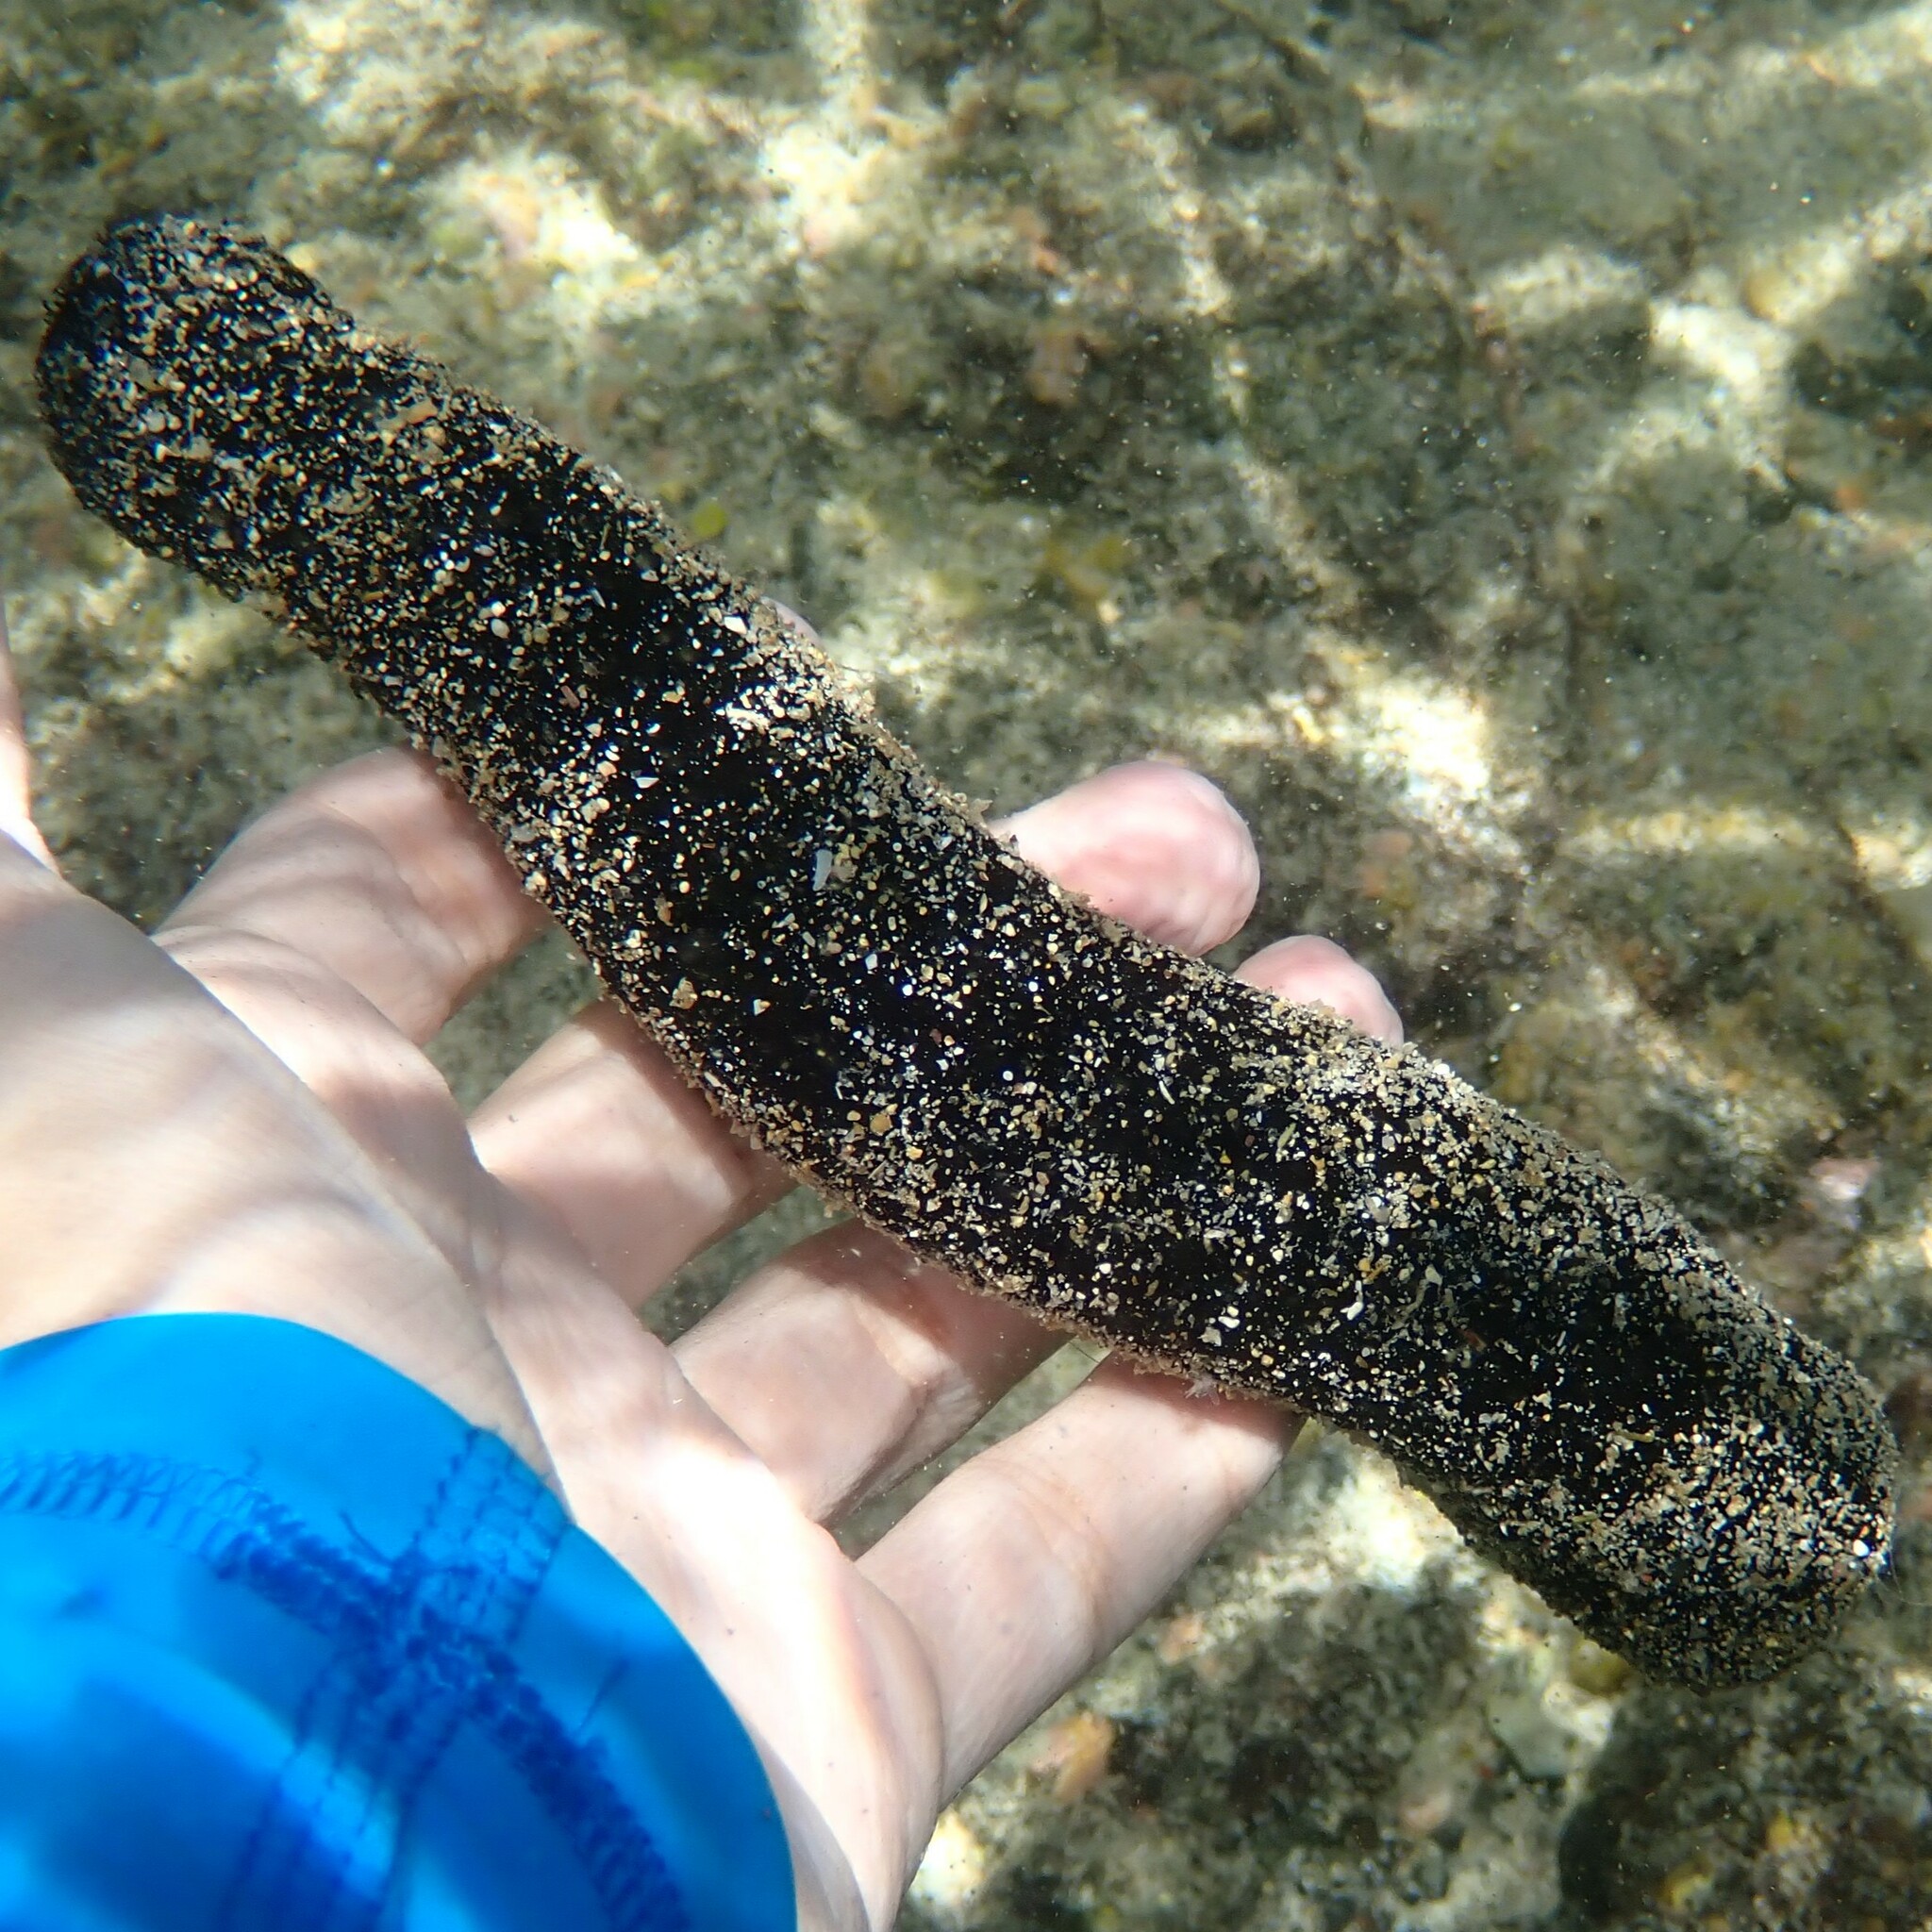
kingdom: Animalia
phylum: Echinodermata
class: Holothuroidea
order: Holothuriida
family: Holothuriidae
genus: Holothuria
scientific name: Holothuria atra
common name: Lollyfish
